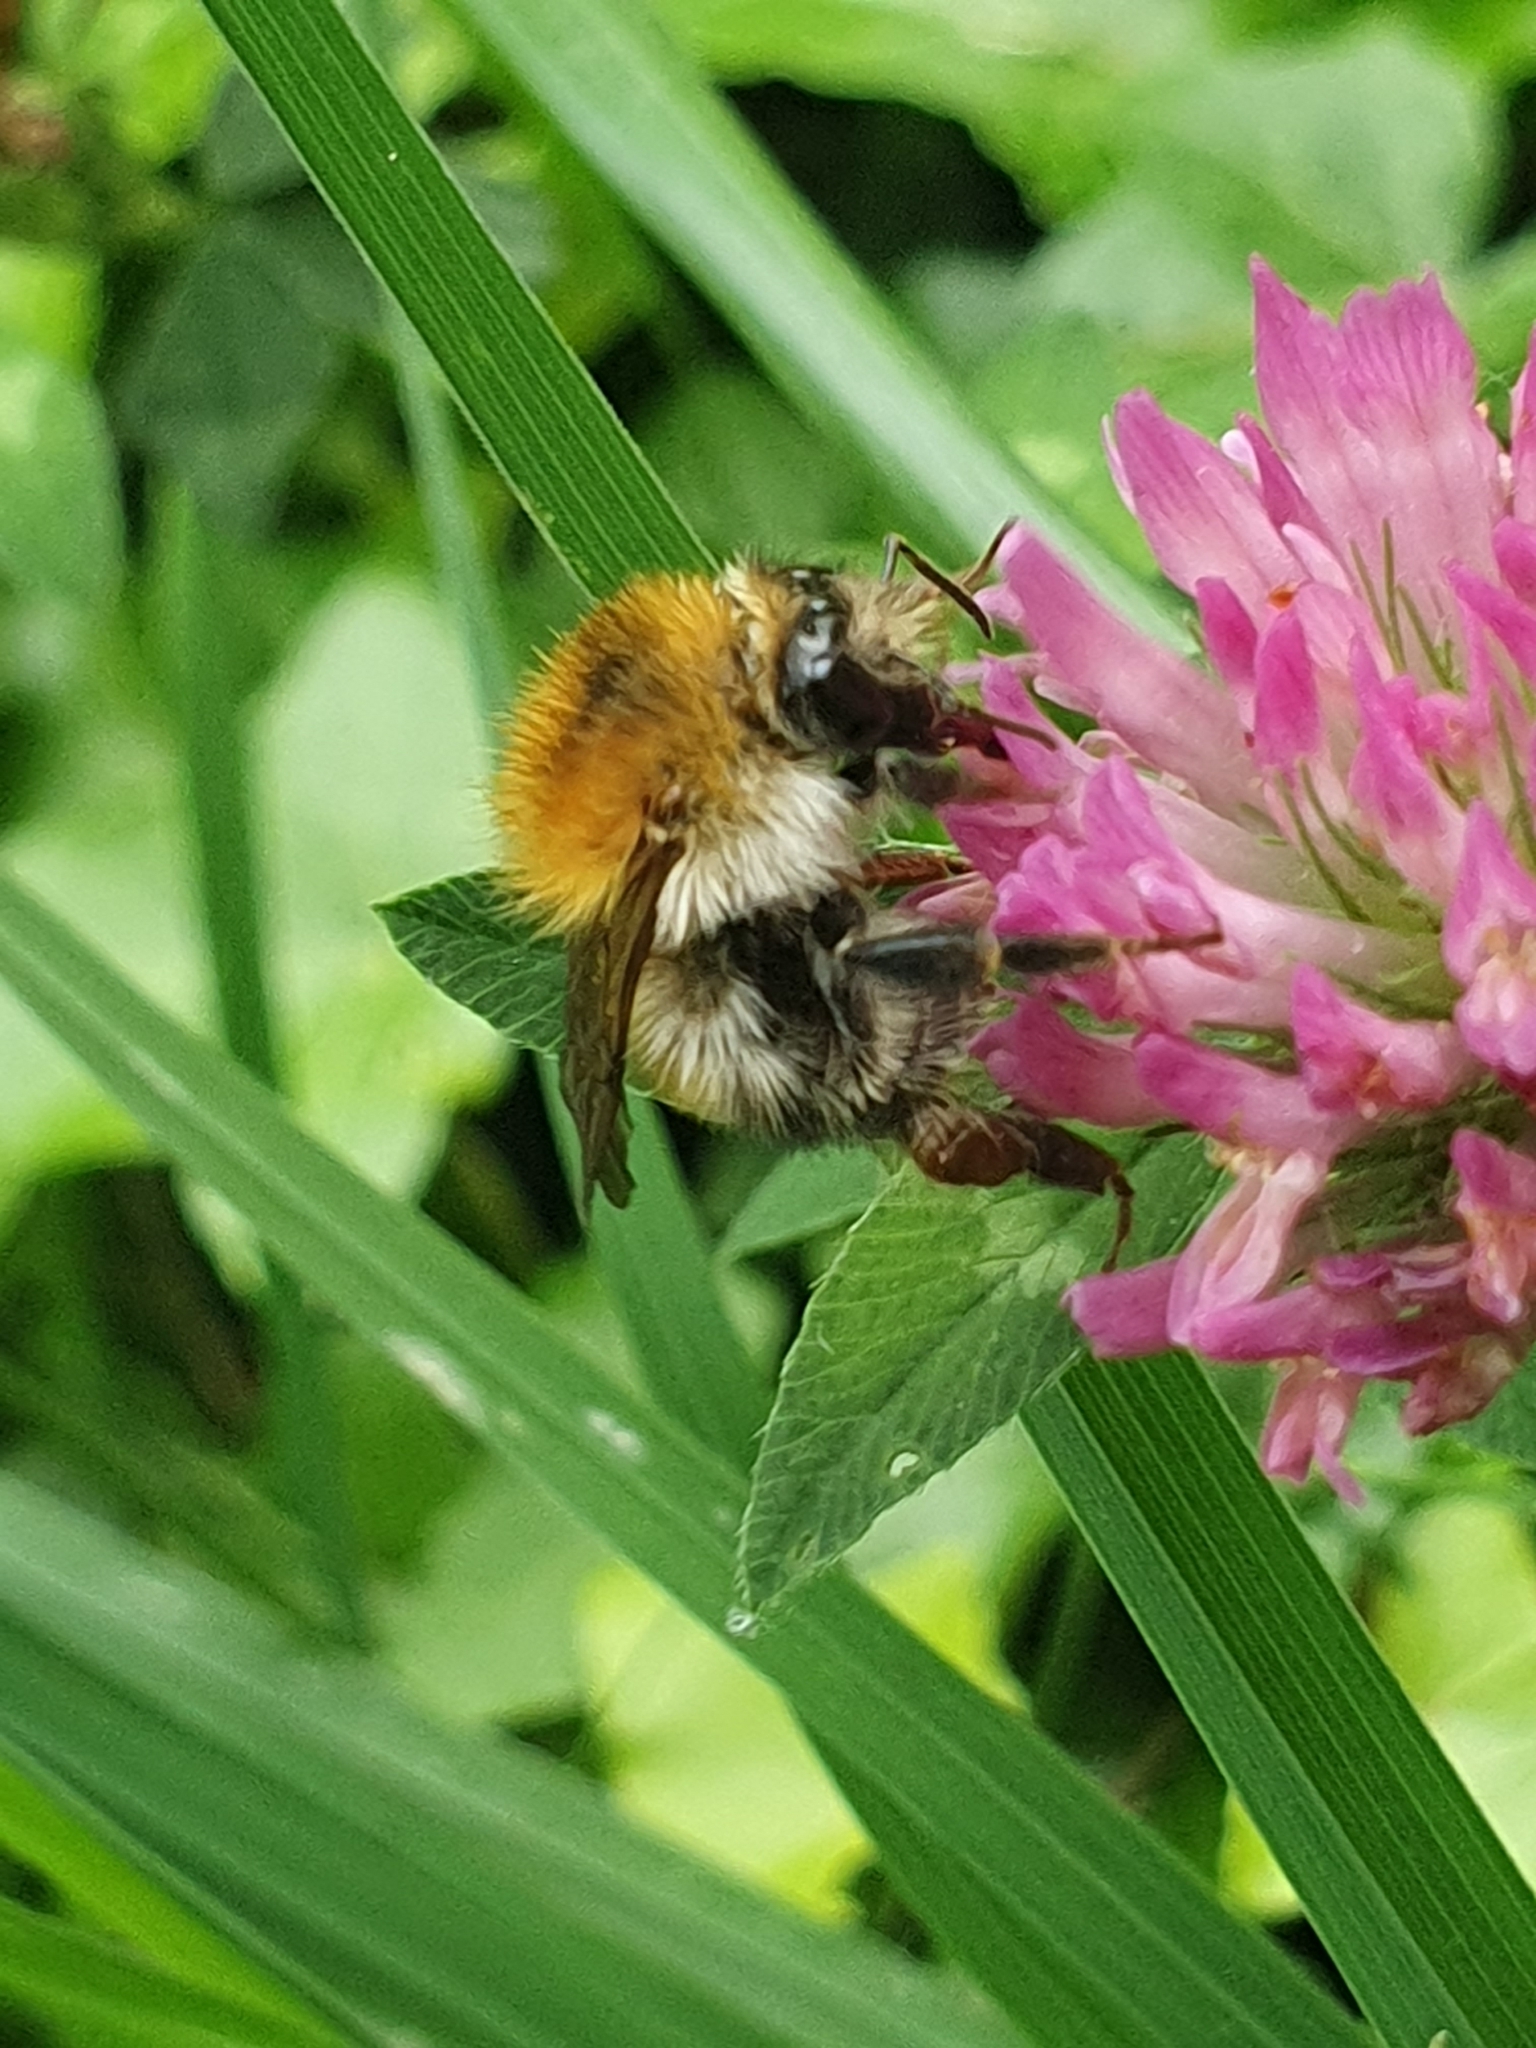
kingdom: Animalia
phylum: Arthropoda
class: Insecta
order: Hymenoptera
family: Apidae
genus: Bombus
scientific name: Bombus pascuorum
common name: Common carder bee
